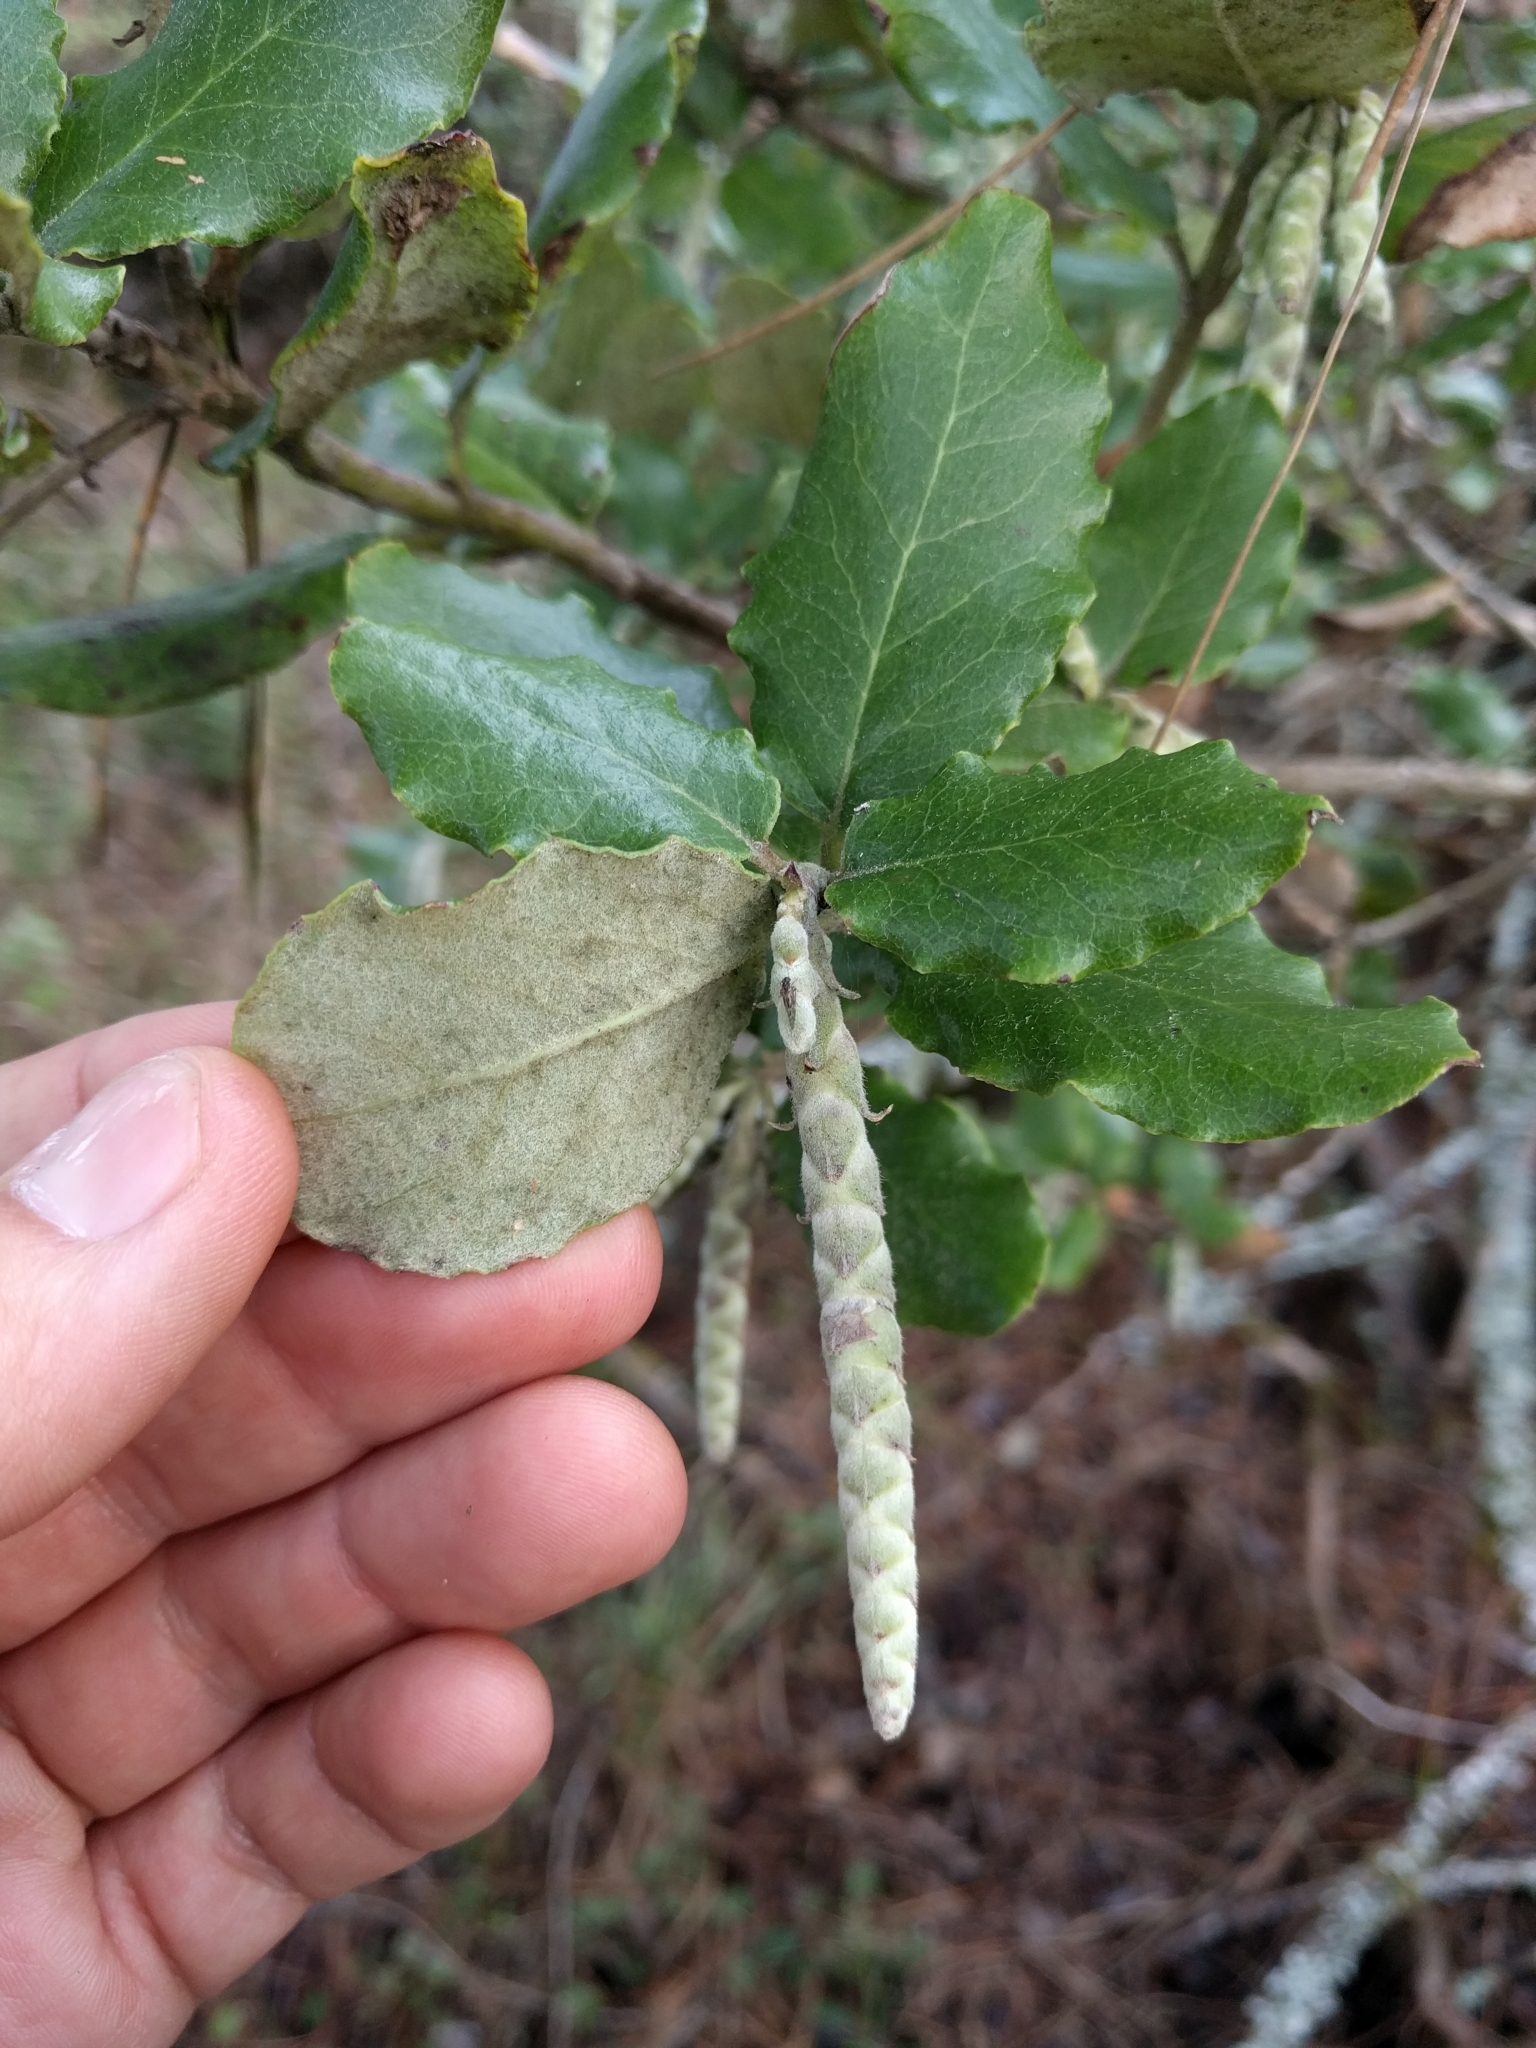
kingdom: Plantae
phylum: Tracheophyta
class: Magnoliopsida
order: Garryales
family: Garryaceae
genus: Garrya
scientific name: Garrya elliptica
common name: Silk-tassel
